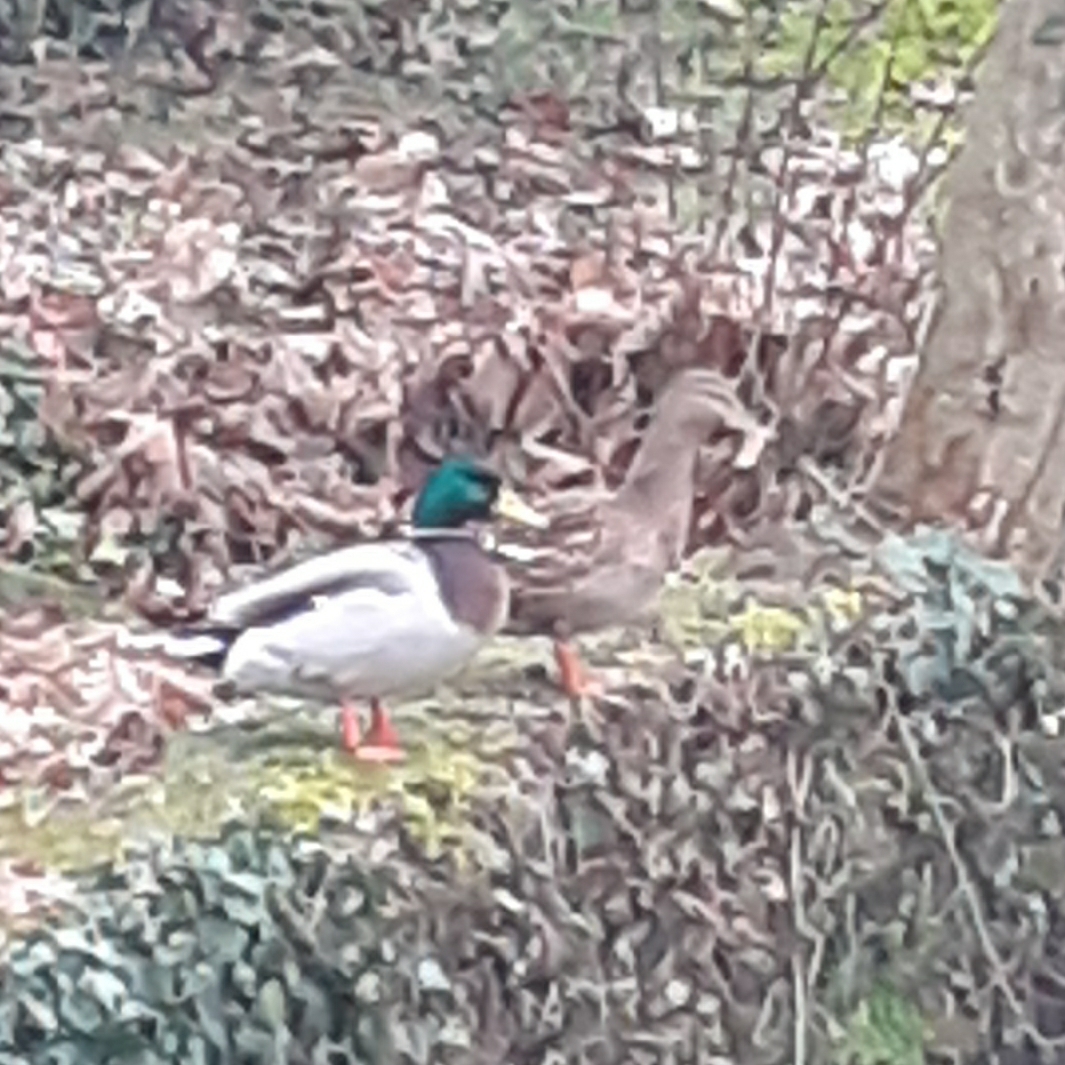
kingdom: Animalia
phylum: Chordata
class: Aves
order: Anseriformes
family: Anatidae
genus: Anas
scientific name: Anas platyrhynchos
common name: Mallard
